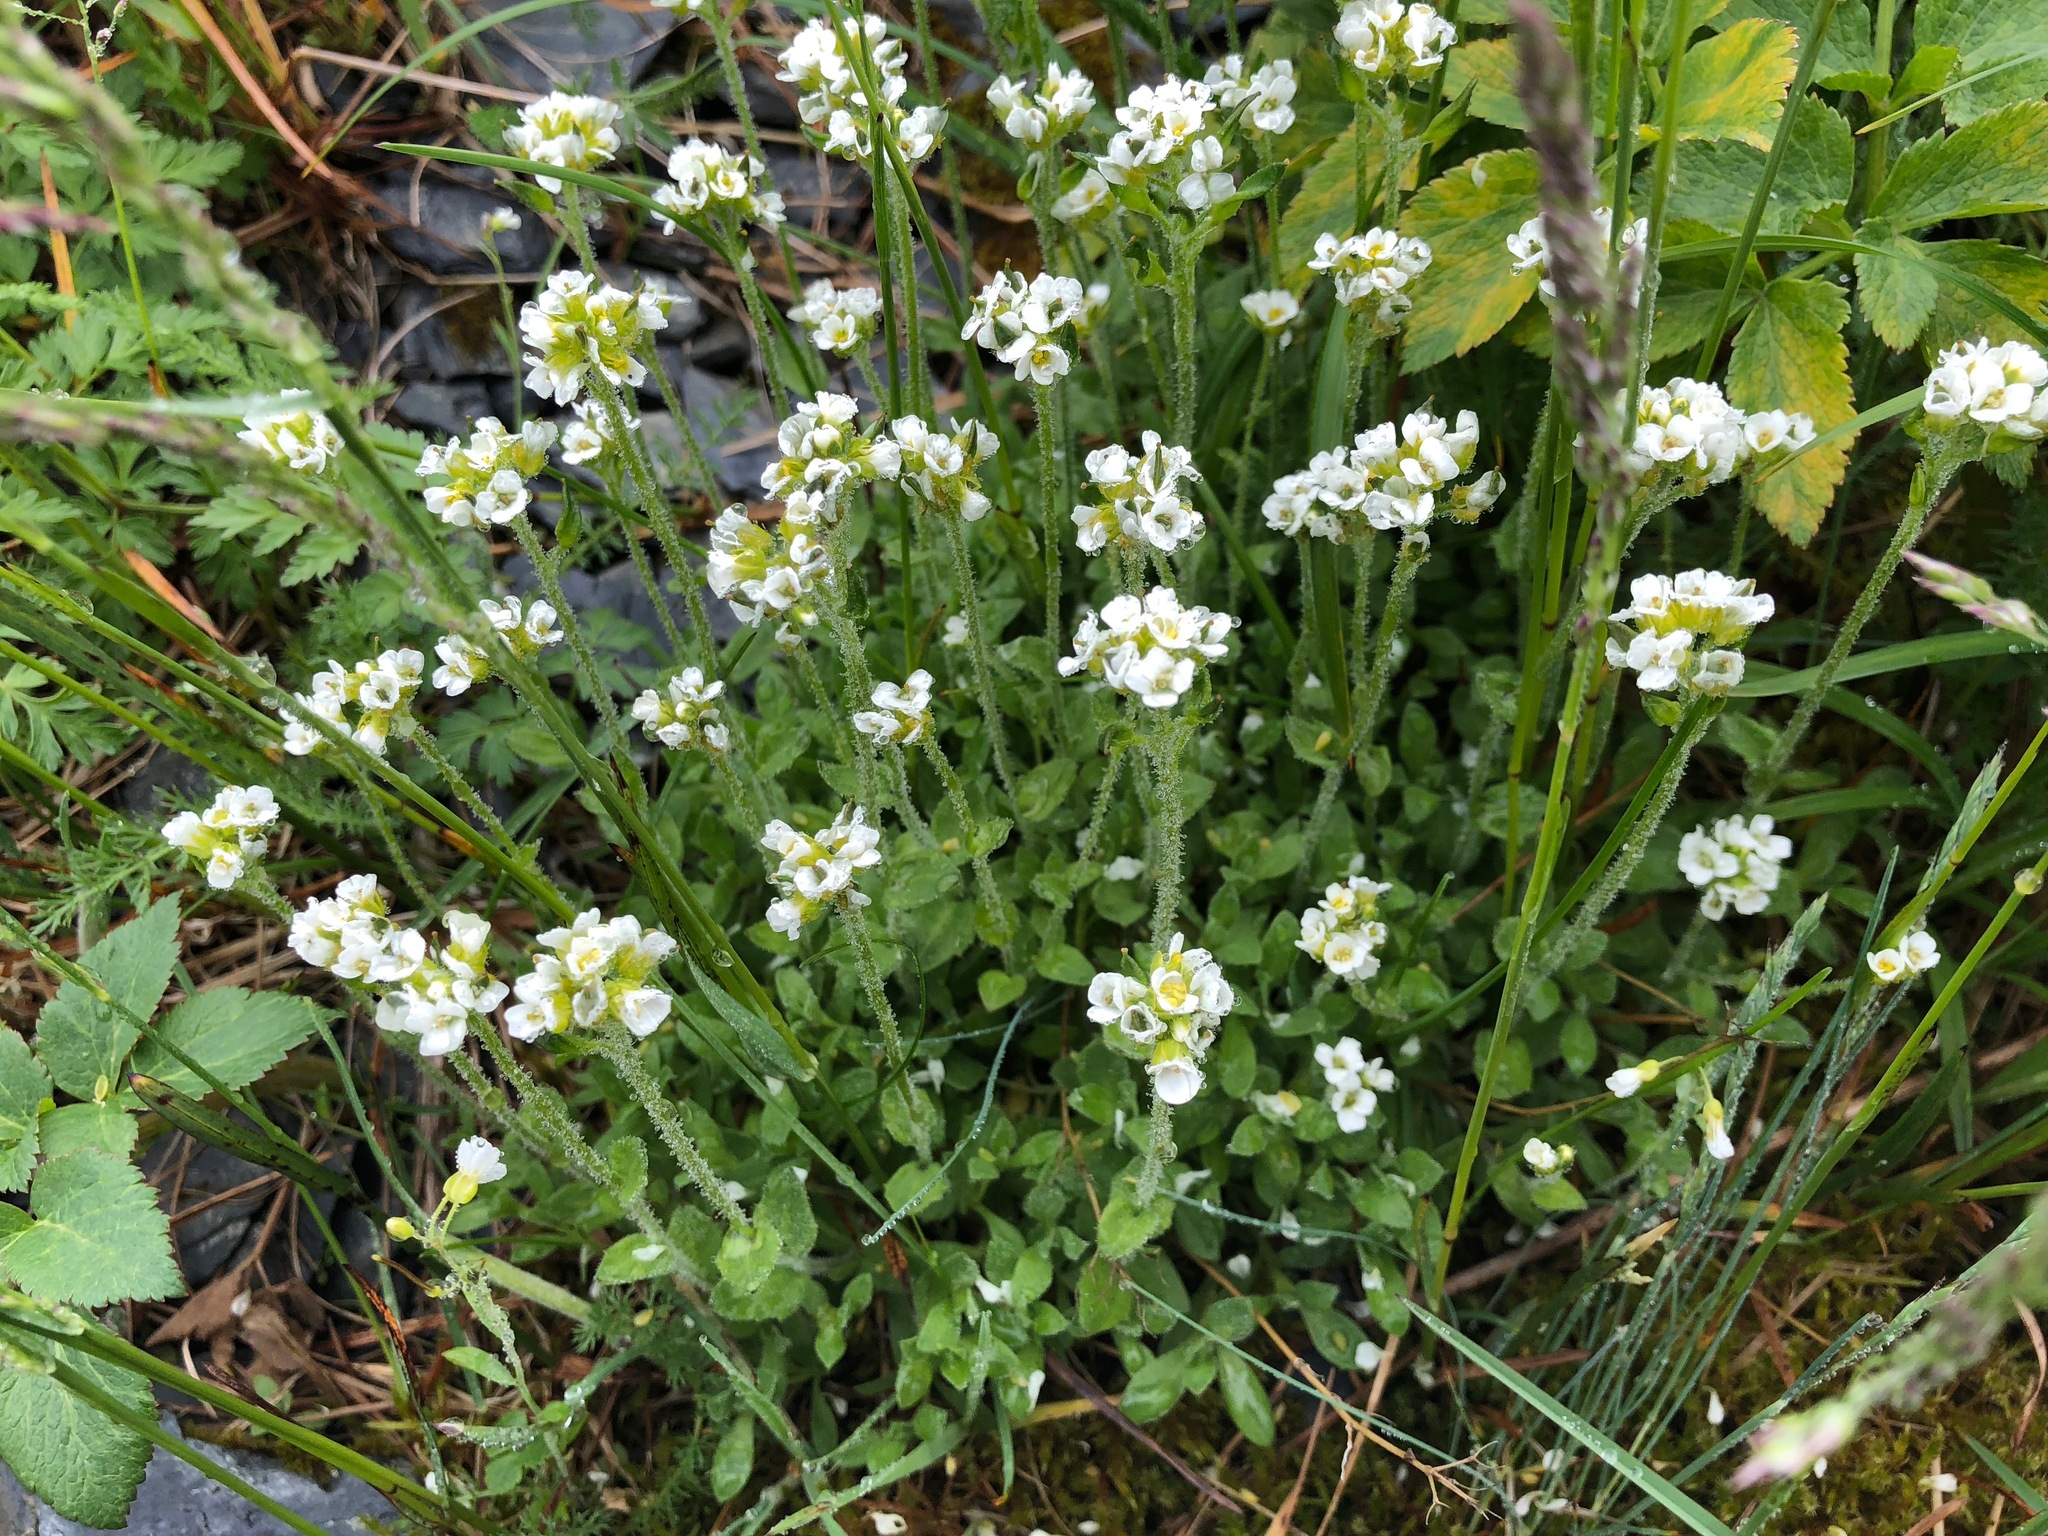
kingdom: Plantae
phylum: Tracheophyta
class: Magnoliopsida
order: Brassicales
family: Brassicaceae
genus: Draba
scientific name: Draba borealis
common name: Boreal draba
